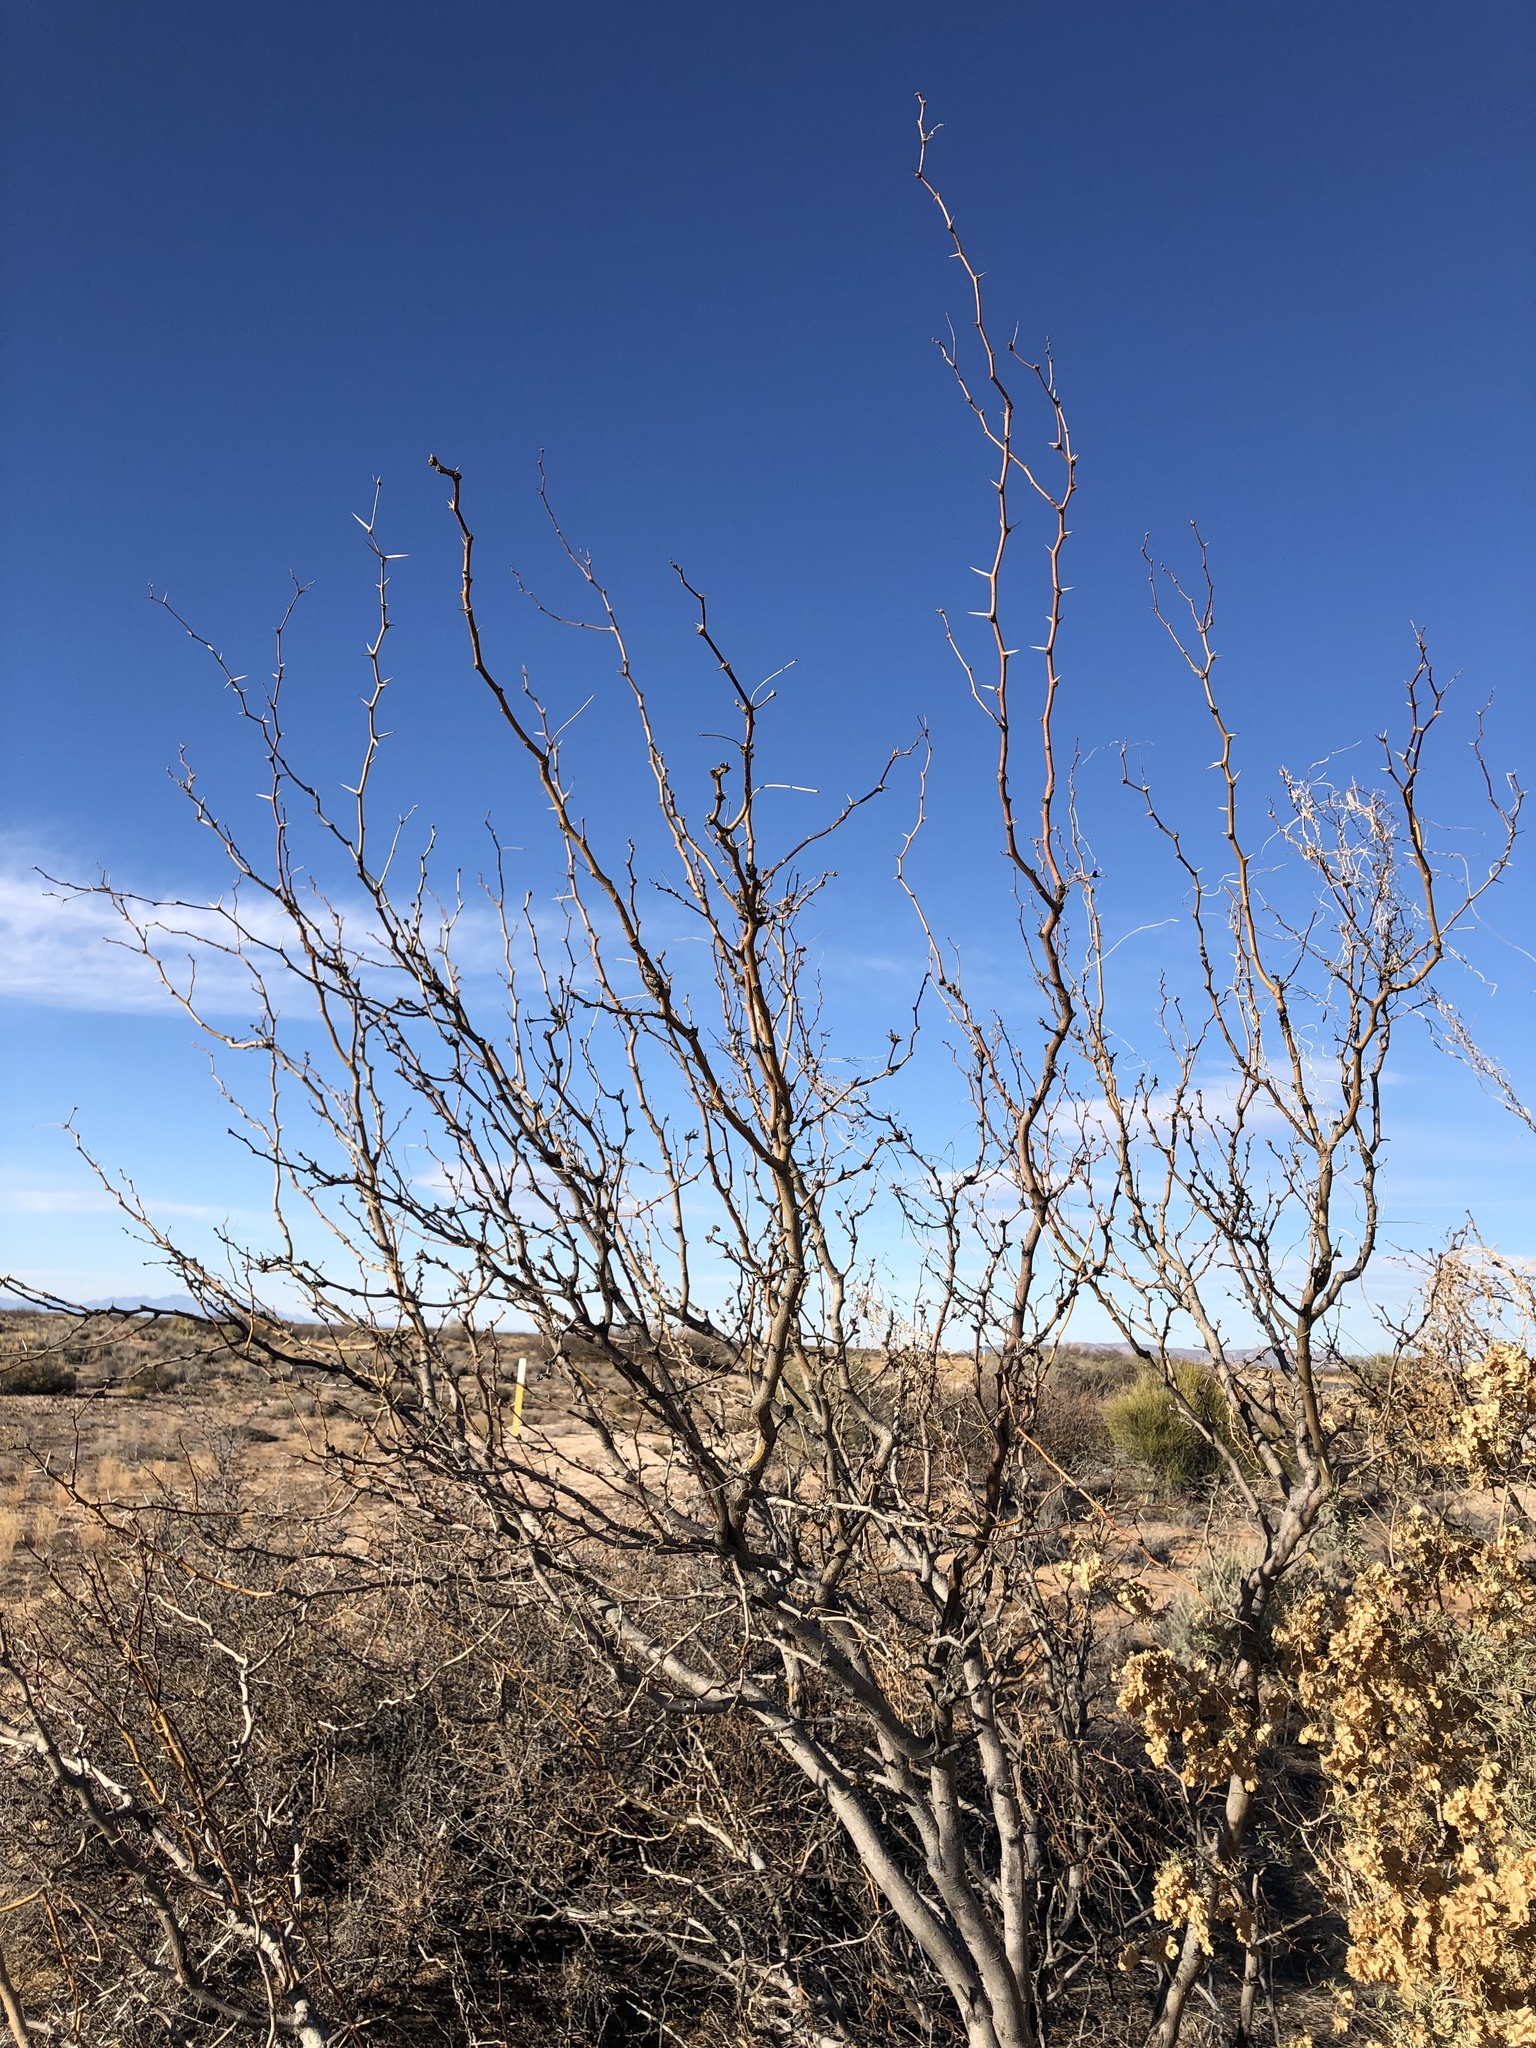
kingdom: Plantae
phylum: Tracheophyta
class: Magnoliopsida
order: Fabales
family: Fabaceae
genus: Prosopis
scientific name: Prosopis glandulosa
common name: Honey mesquite
